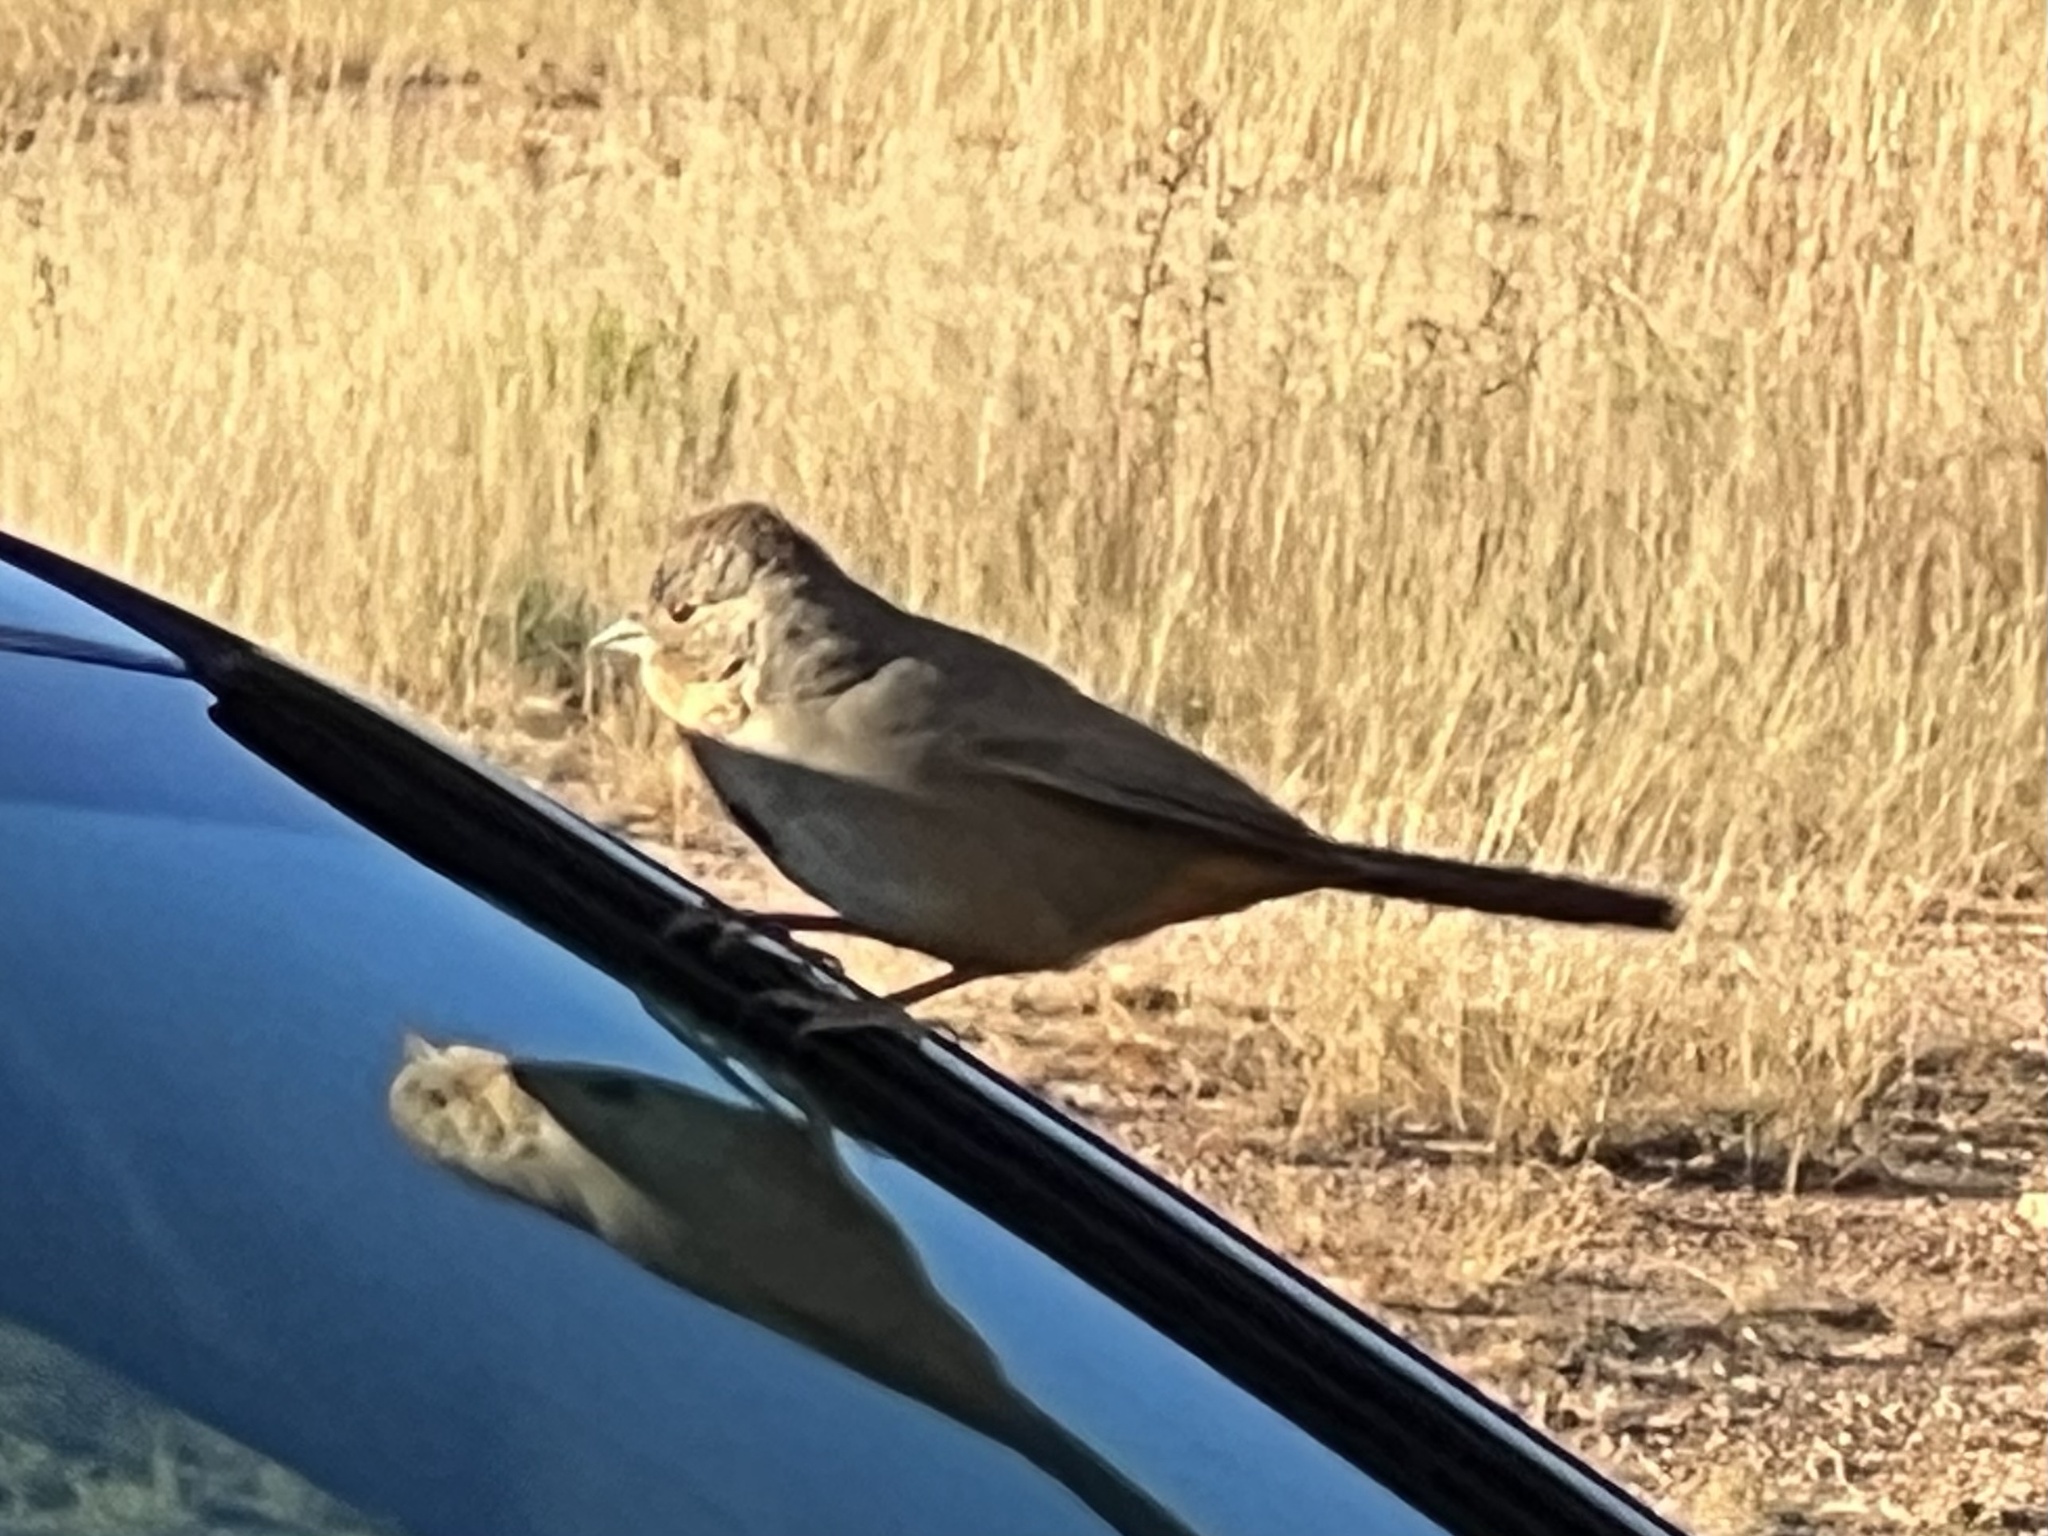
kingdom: Animalia
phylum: Chordata
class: Aves
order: Passeriformes
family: Passerellidae
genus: Melozone
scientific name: Melozone fusca
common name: Canyon towhee
